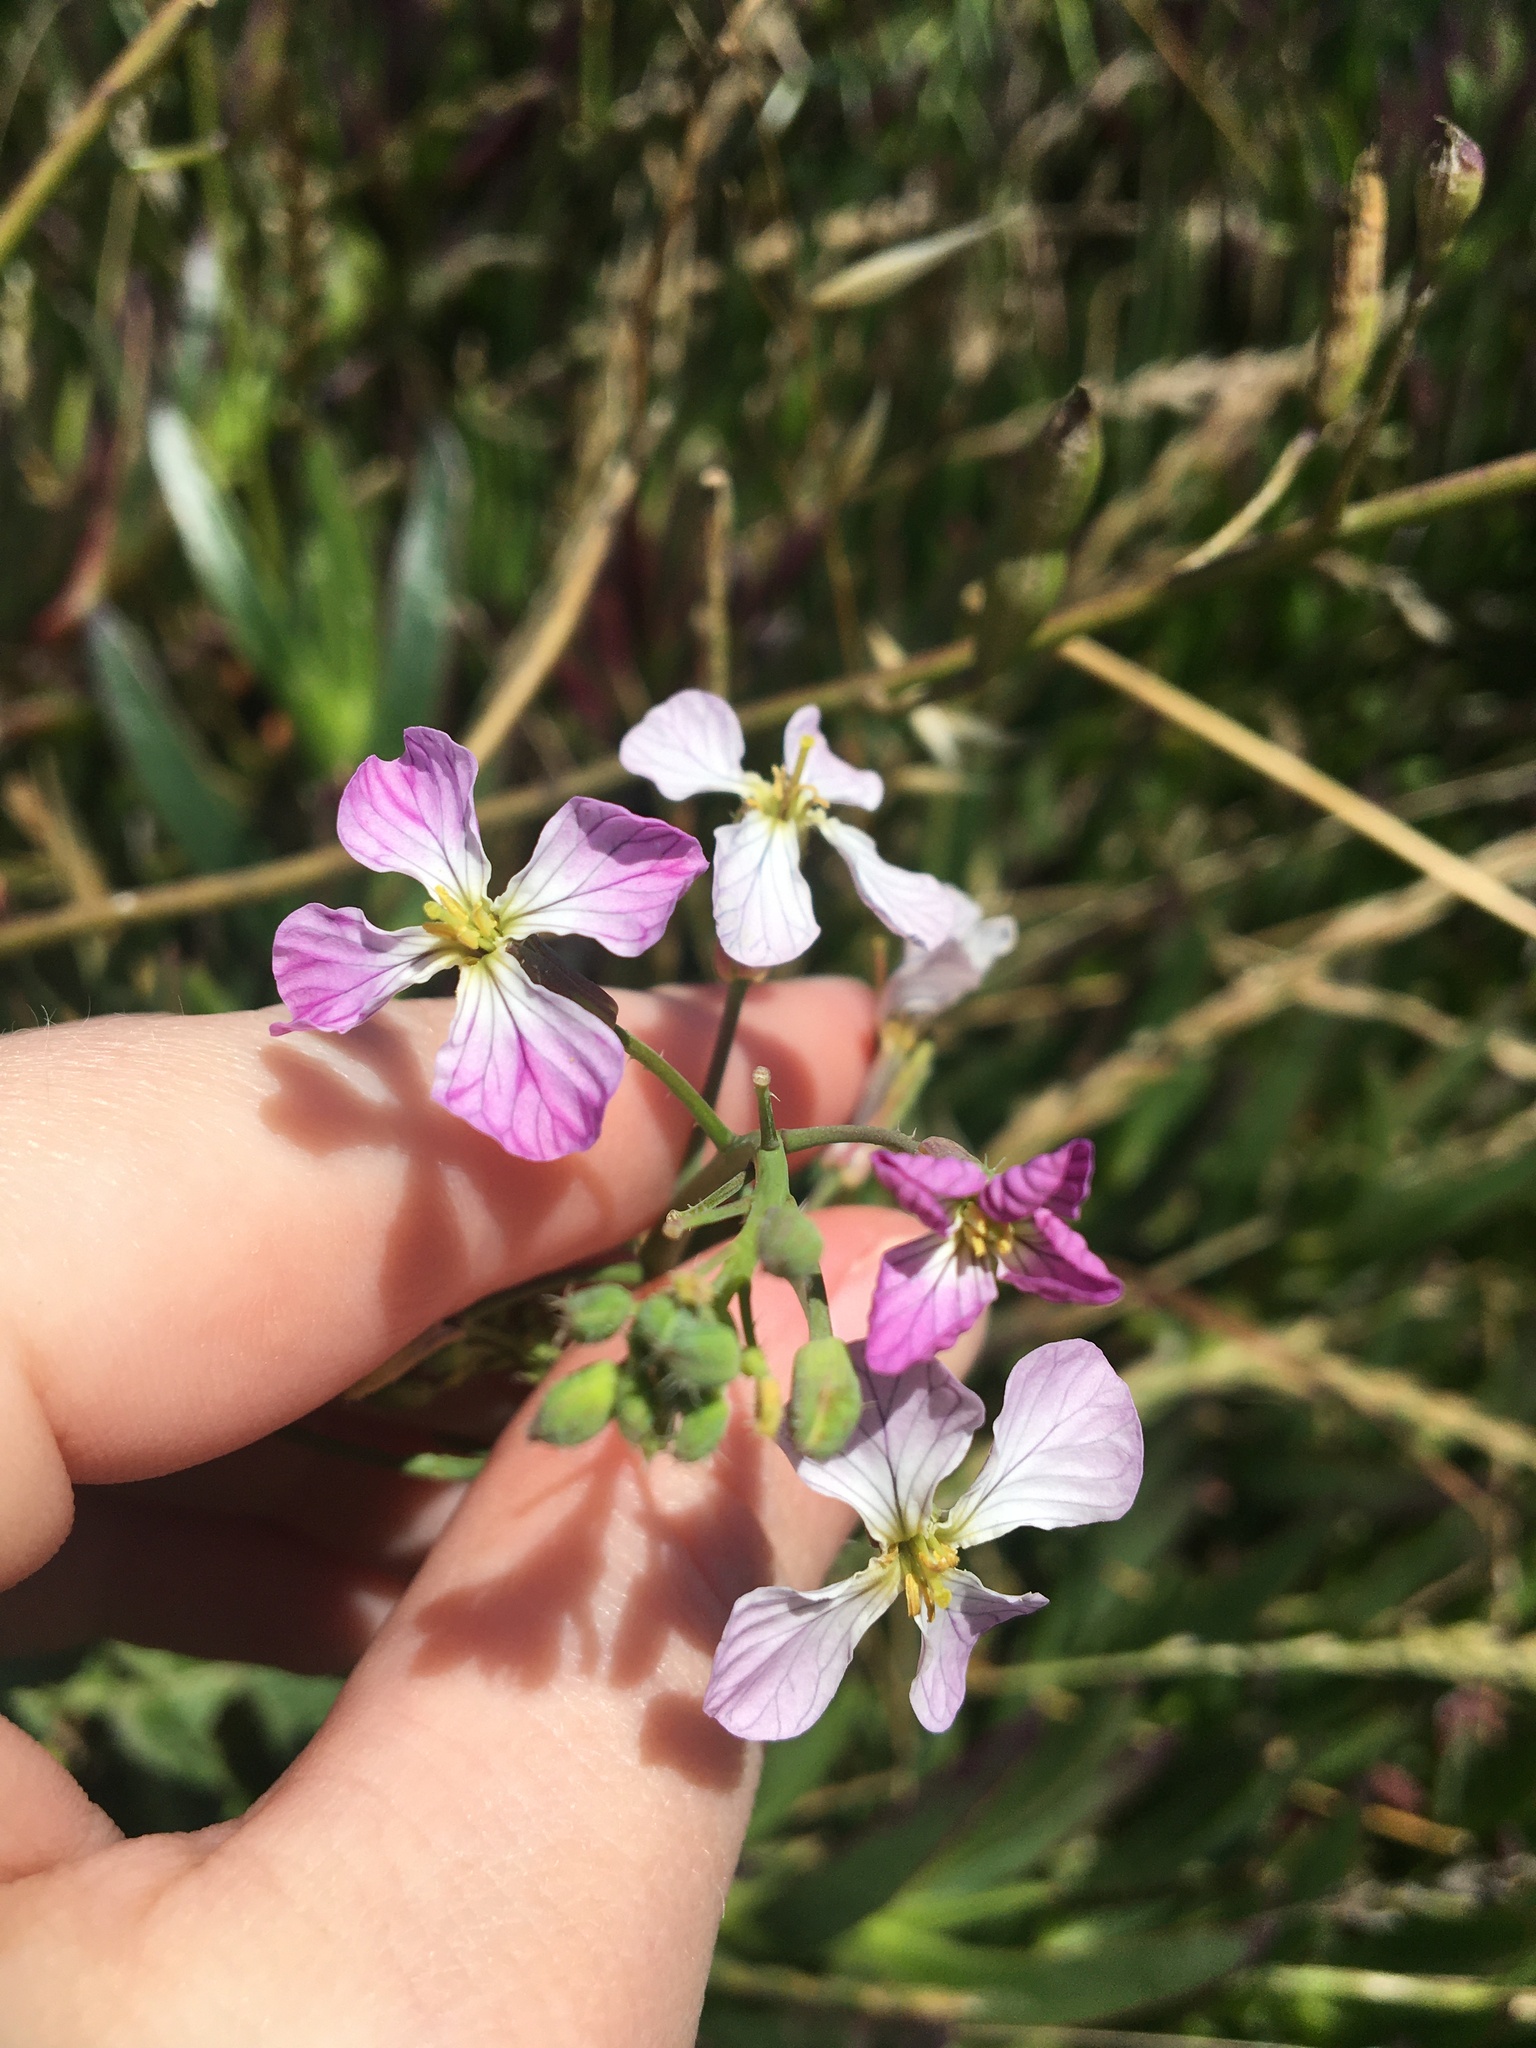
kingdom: Plantae
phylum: Tracheophyta
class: Magnoliopsida
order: Brassicales
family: Brassicaceae
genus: Raphanus
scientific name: Raphanus sativus
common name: Cultivated radish
